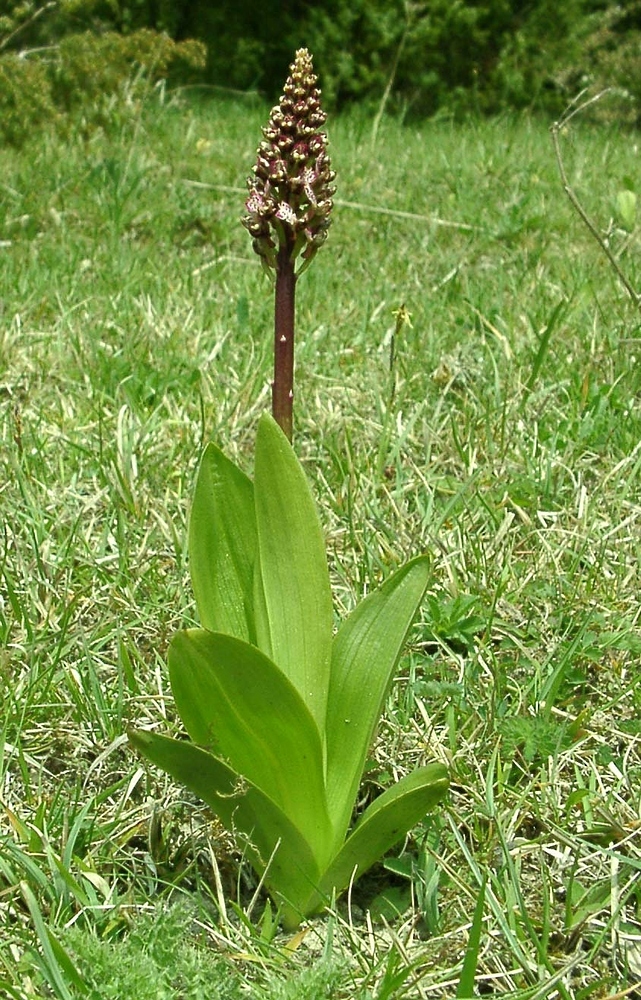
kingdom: Plantae
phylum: Tracheophyta
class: Liliopsida
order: Asparagales
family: Orchidaceae
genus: Orchis
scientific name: Orchis purpurea
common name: Lady orchid
